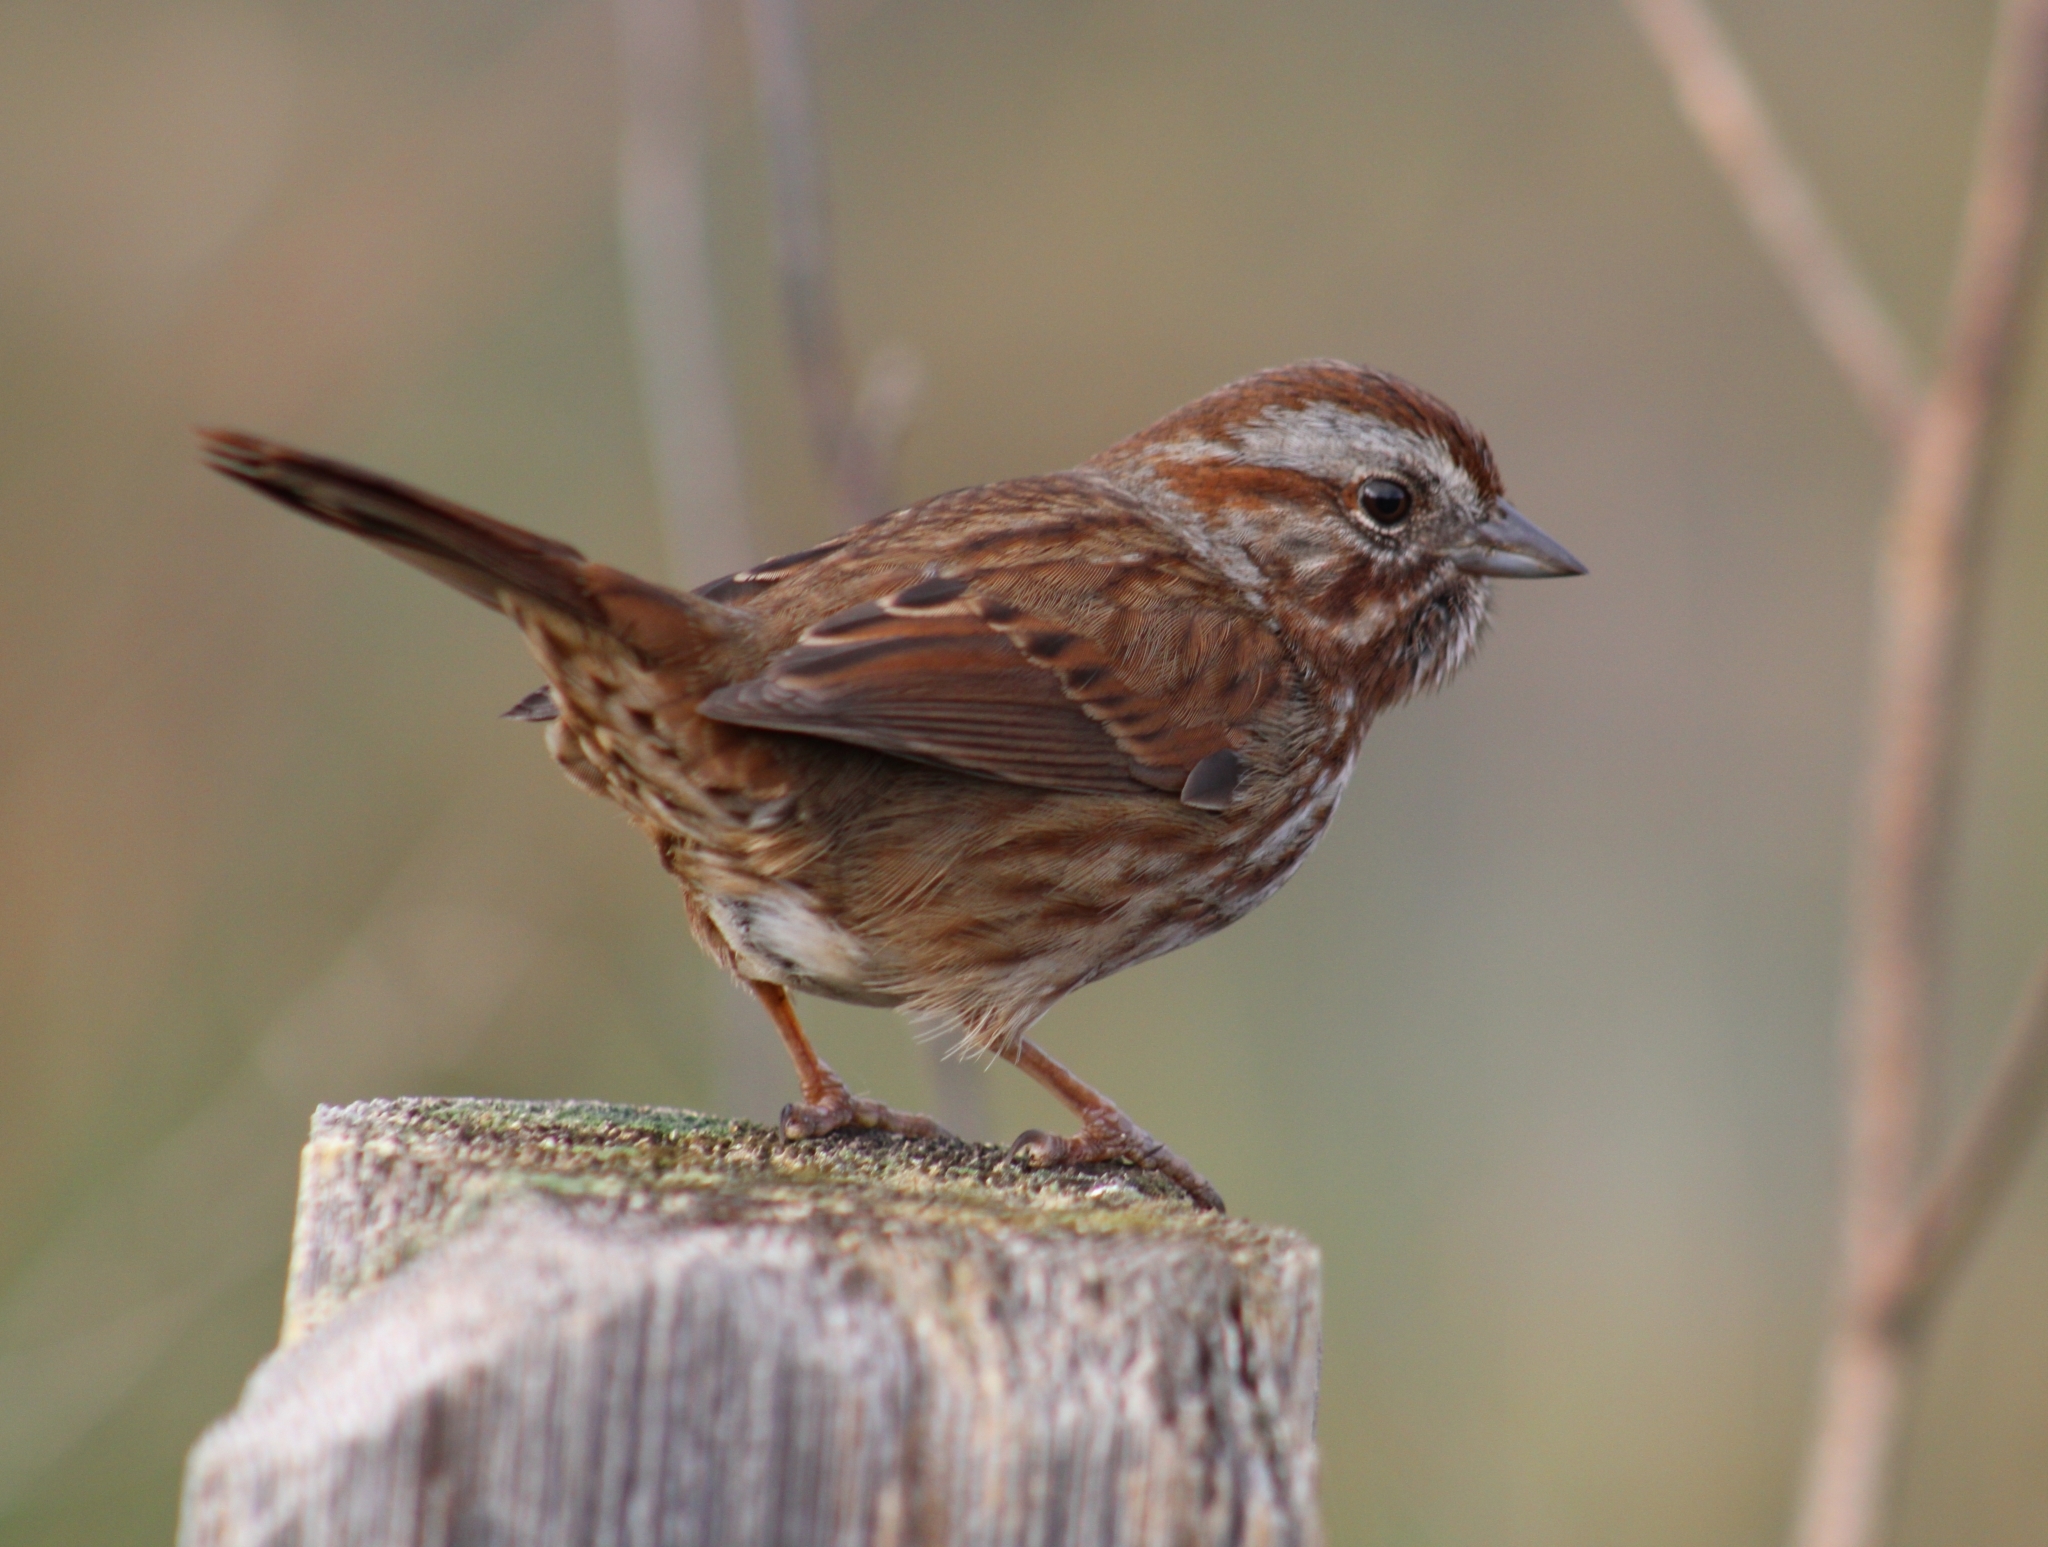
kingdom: Animalia
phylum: Chordata
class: Aves
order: Passeriformes
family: Passerellidae
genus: Melospiza
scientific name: Melospiza melodia
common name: Song sparrow
